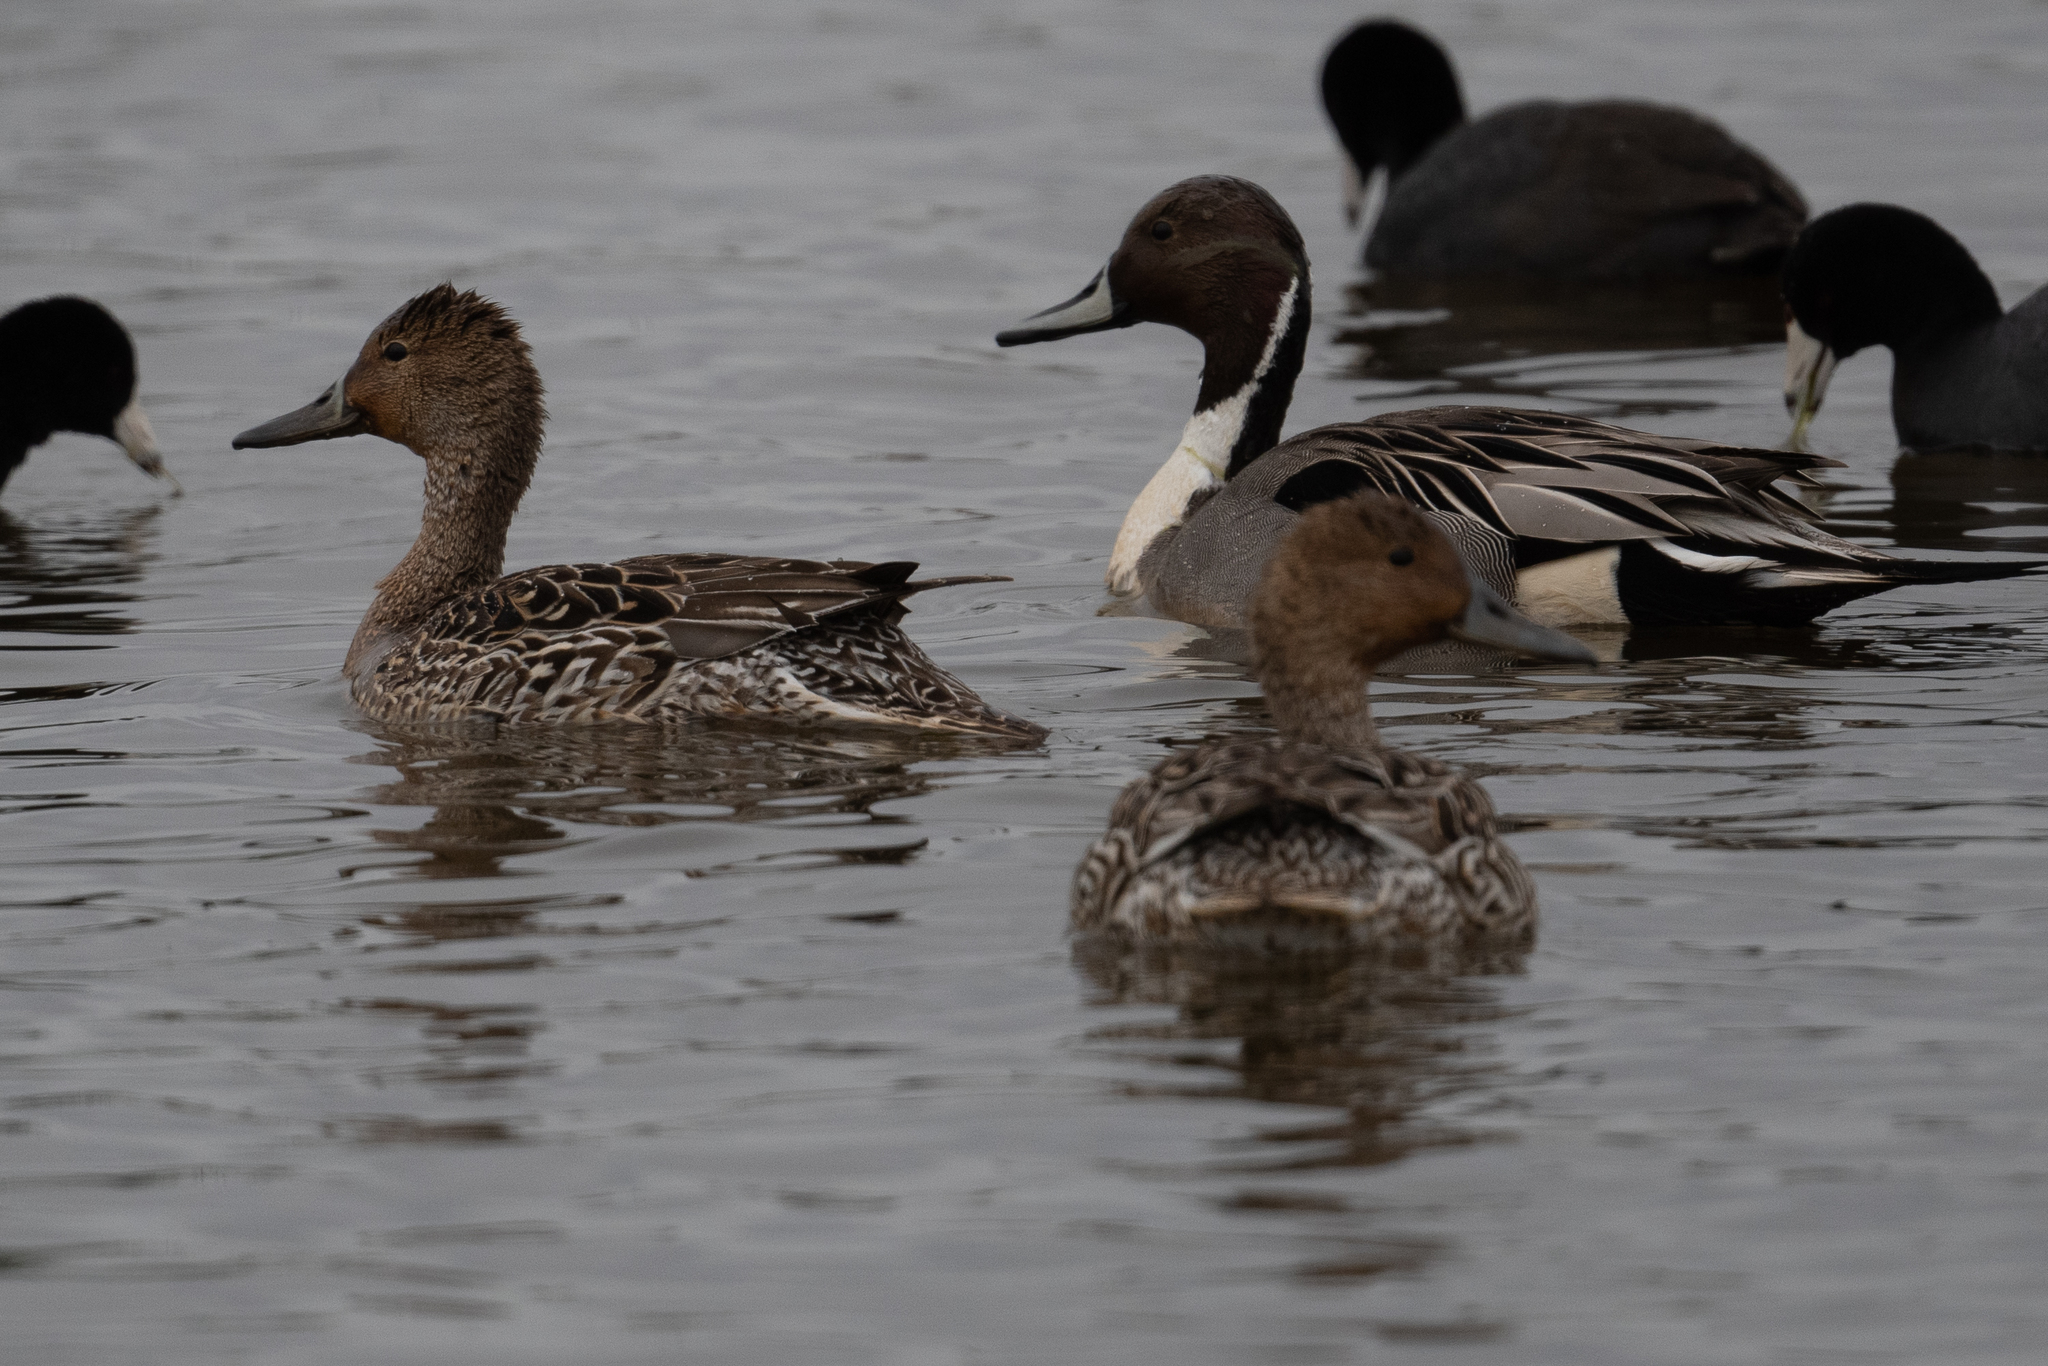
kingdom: Animalia
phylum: Chordata
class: Aves
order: Anseriformes
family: Anatidae
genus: Anas
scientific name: Anas acuta
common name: Northern pintail
